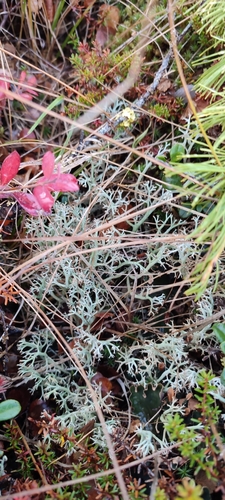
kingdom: Fungi
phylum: Ascomycota
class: Lecanoromycetes
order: Lecanorales
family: Cladoniaceae
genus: Cladonia
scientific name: Cladonia rangiformis
